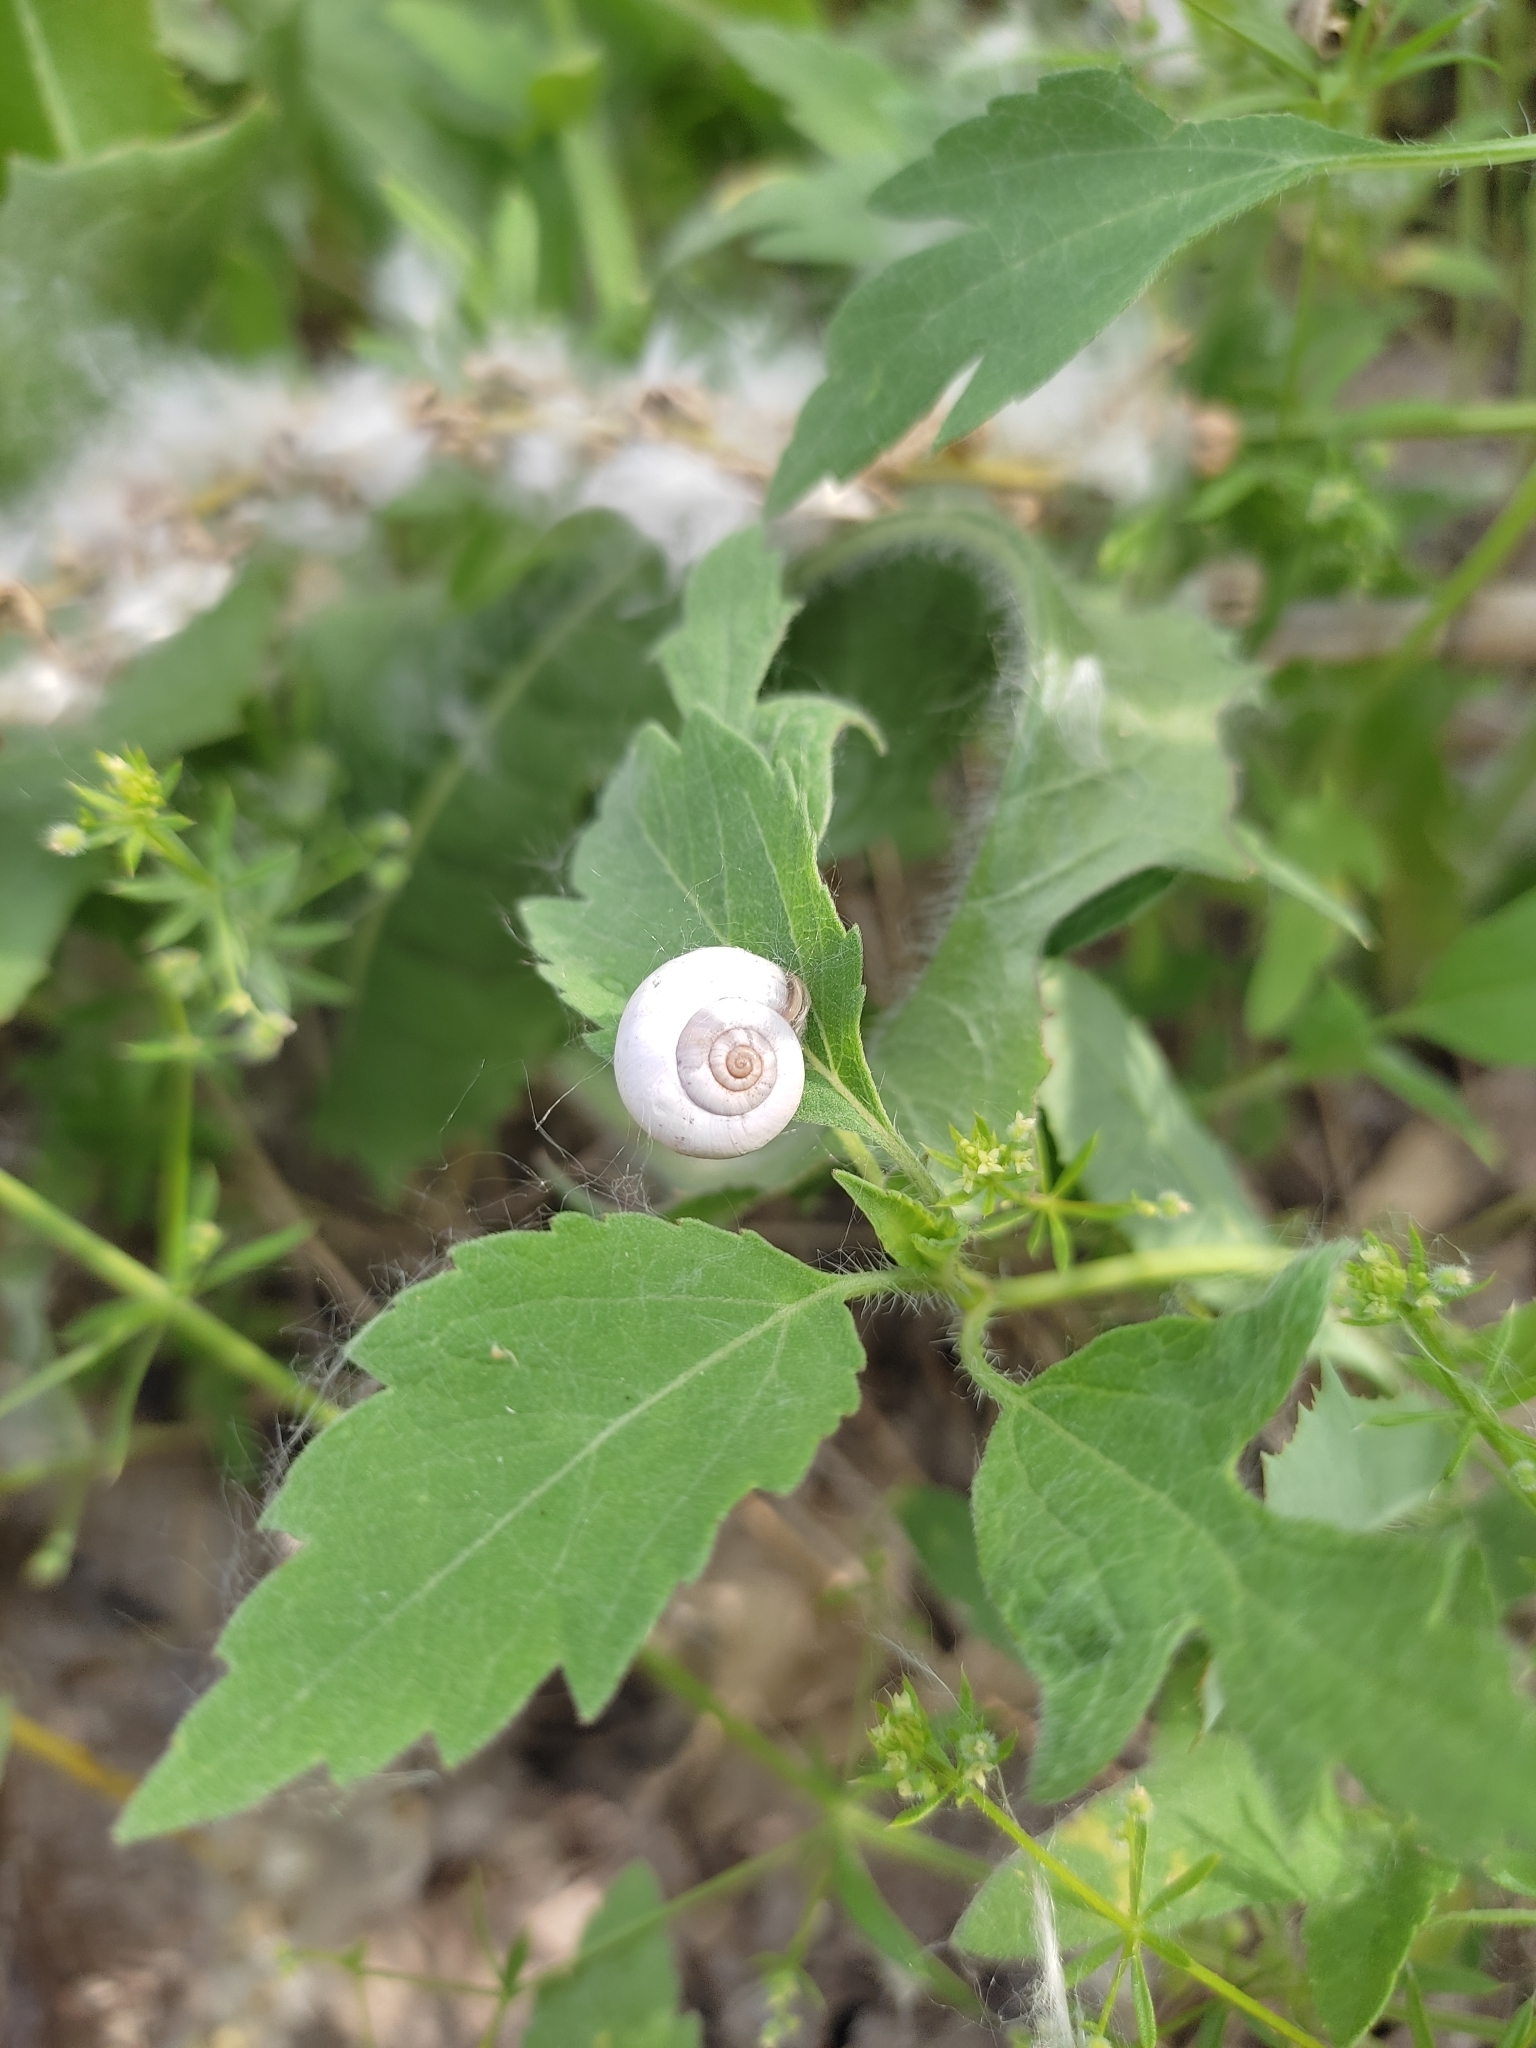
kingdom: Animalia
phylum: Mollusca
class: Gastropoda
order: Stylommatophora
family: Geomitridae
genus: Xeropicta
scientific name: Xeropicta derbentina
